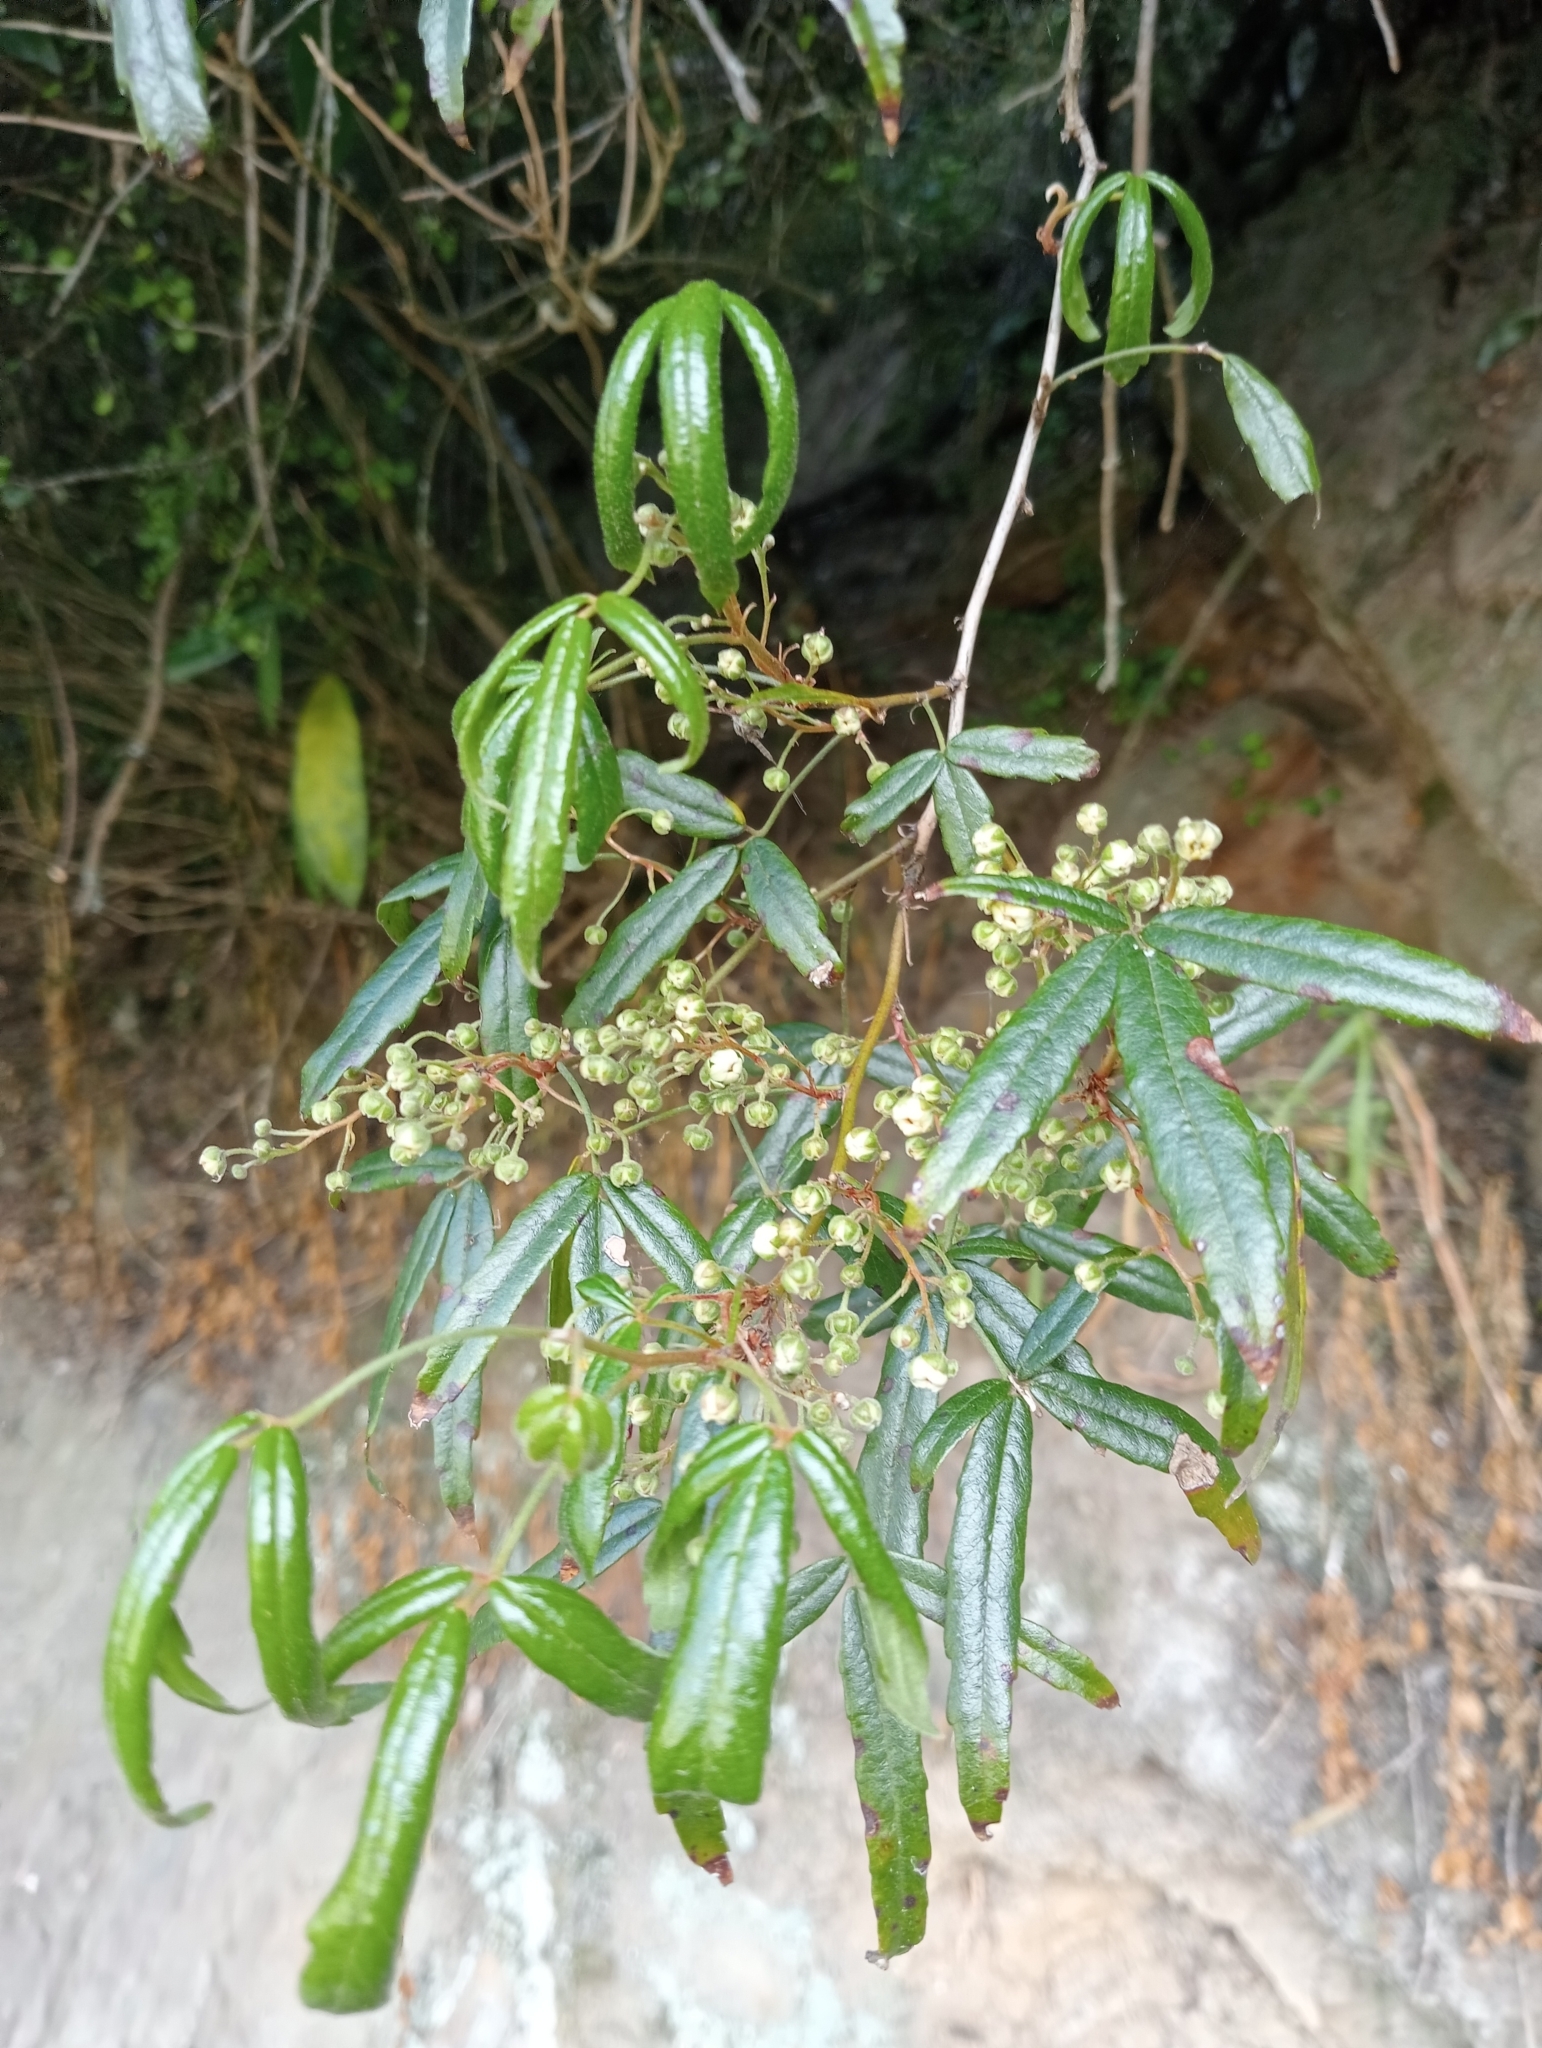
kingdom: Plantae
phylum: Tracheophyta
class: Magnoliopsida
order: Rosales
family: Rosaceae
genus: Rubus
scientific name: Rubus schmidelioides
